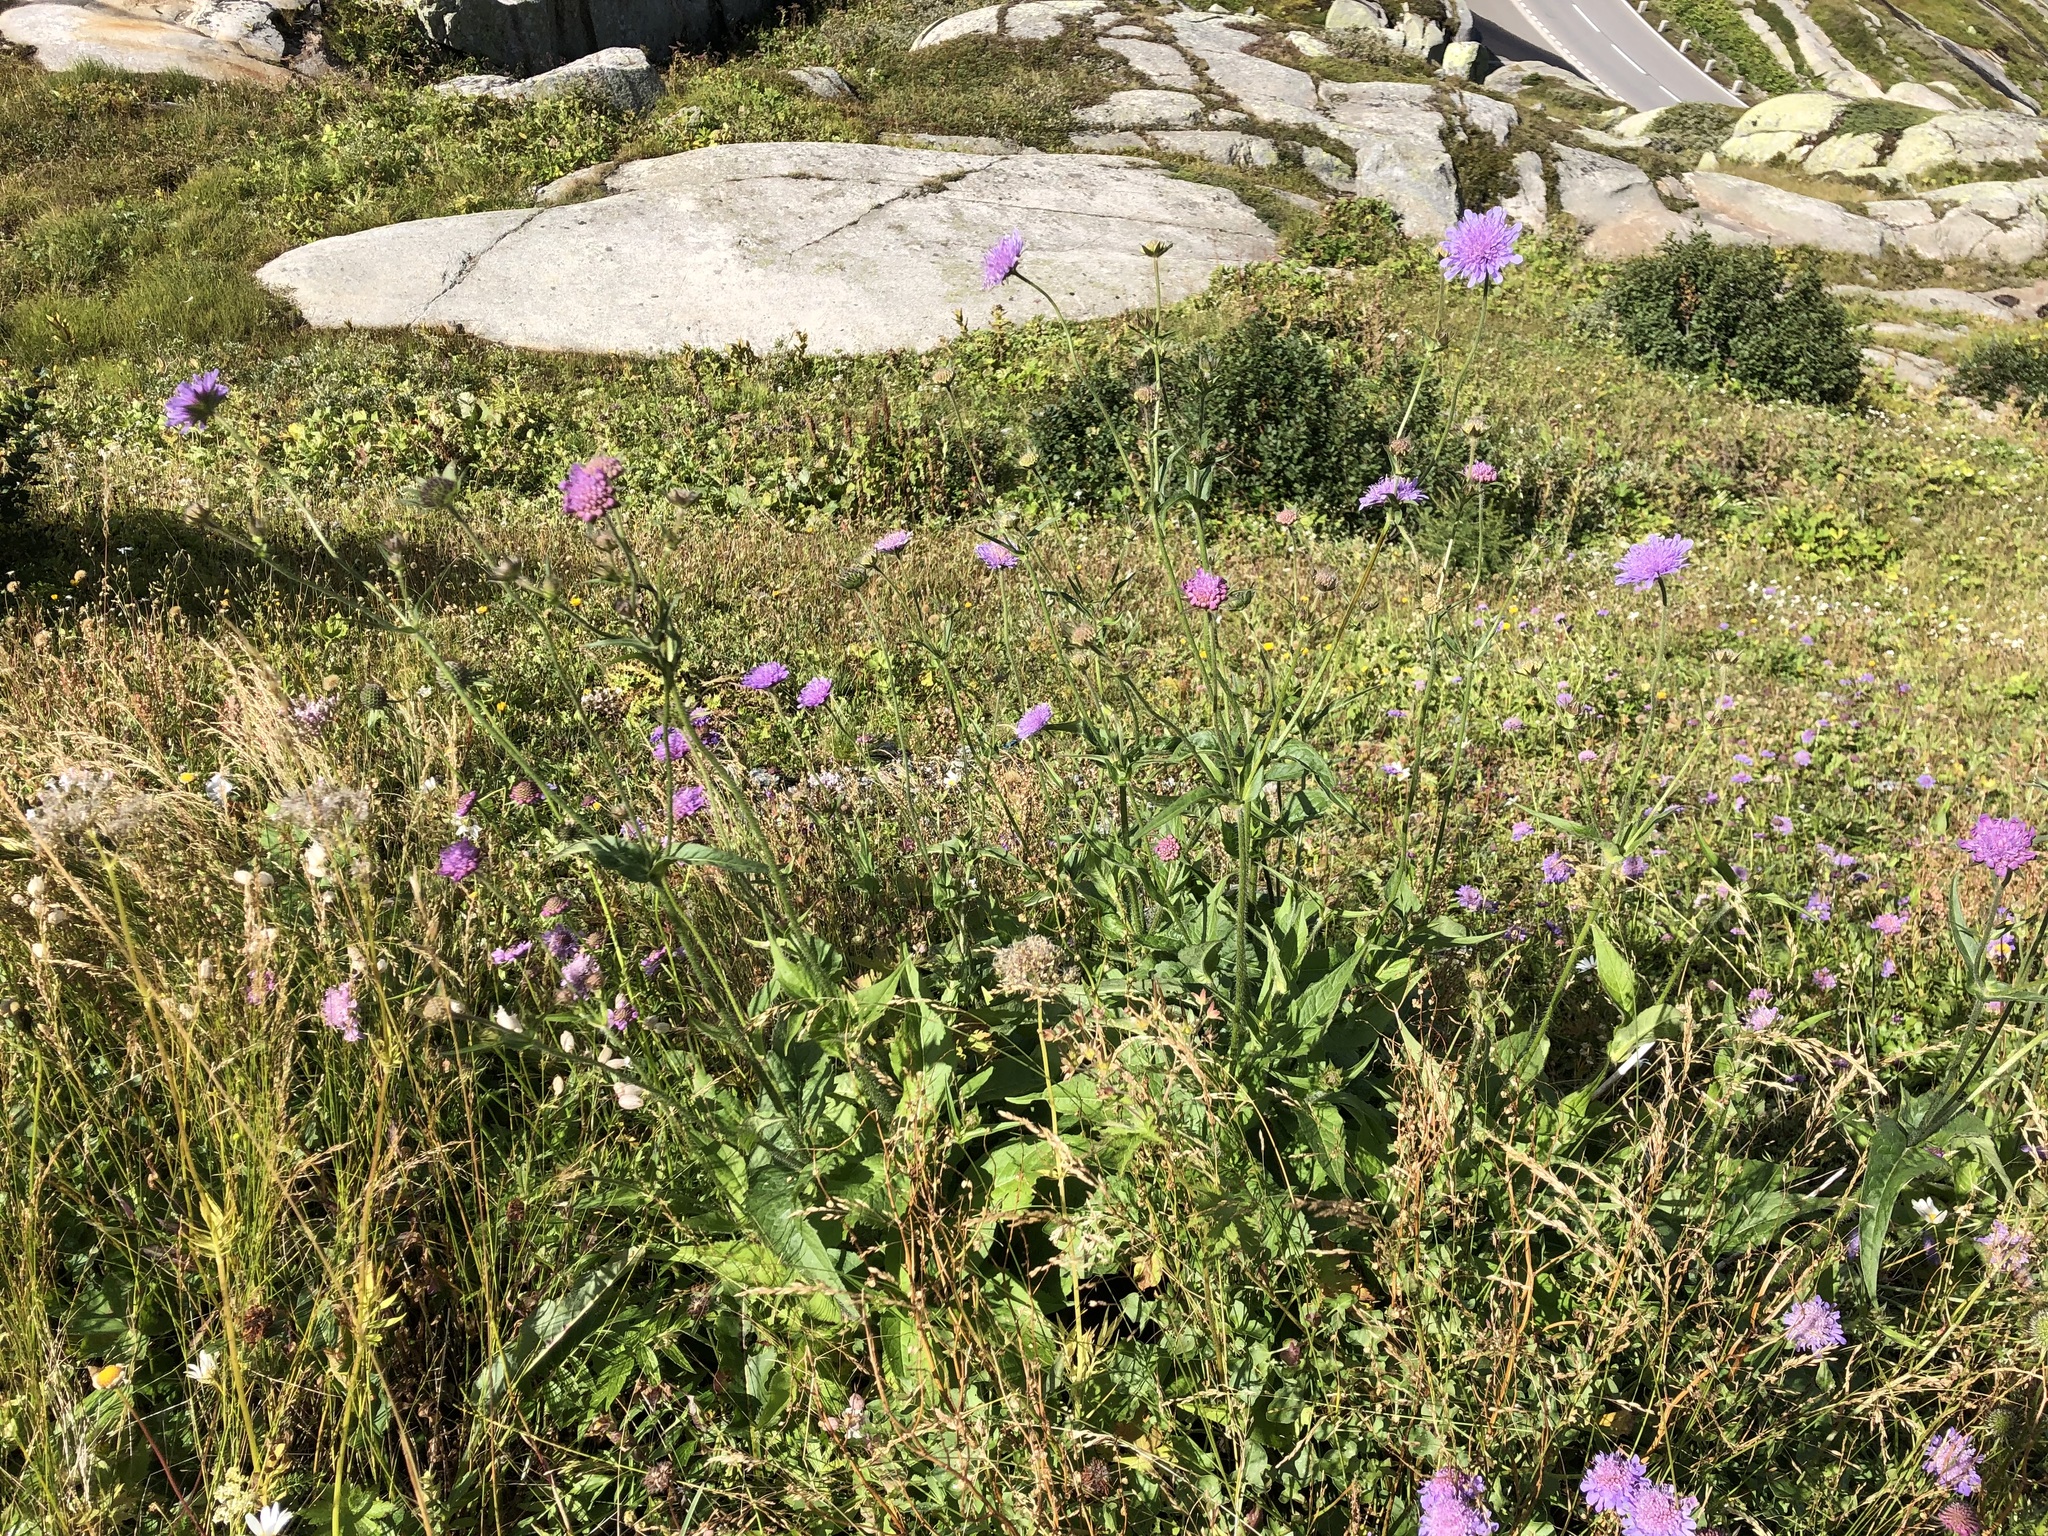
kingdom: Plantae
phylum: Tracheophyta
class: Magnoliopsida
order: Dipsacales
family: Caprifoliaceae
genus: Knautia
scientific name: Knautia dipsacifolia
